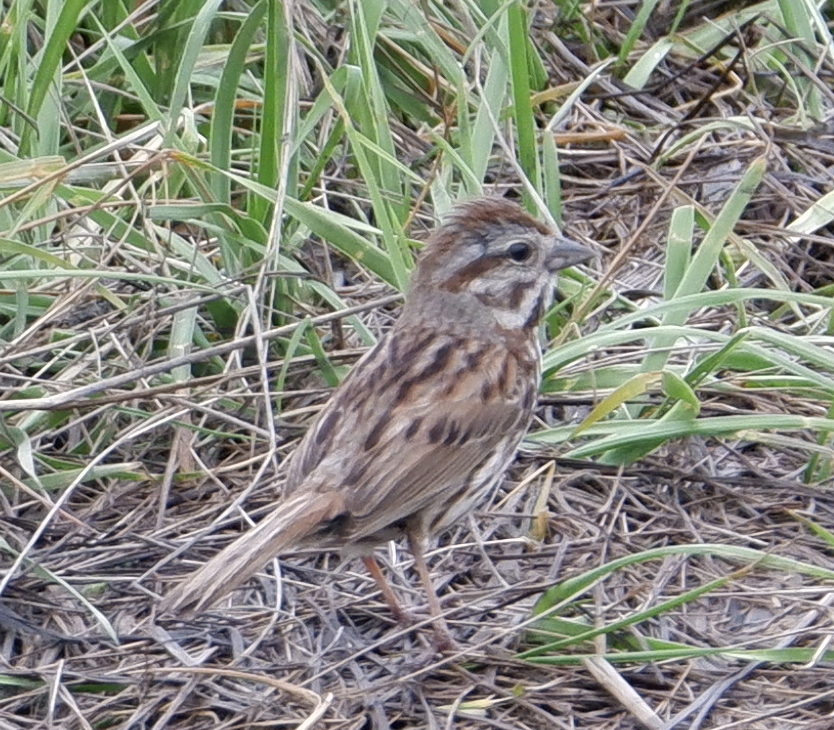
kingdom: Animalia
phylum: Chordata
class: Aves
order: Passeriformes
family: Passerellidae
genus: Melospiza
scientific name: Melospiza melodia
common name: Song sparrow
